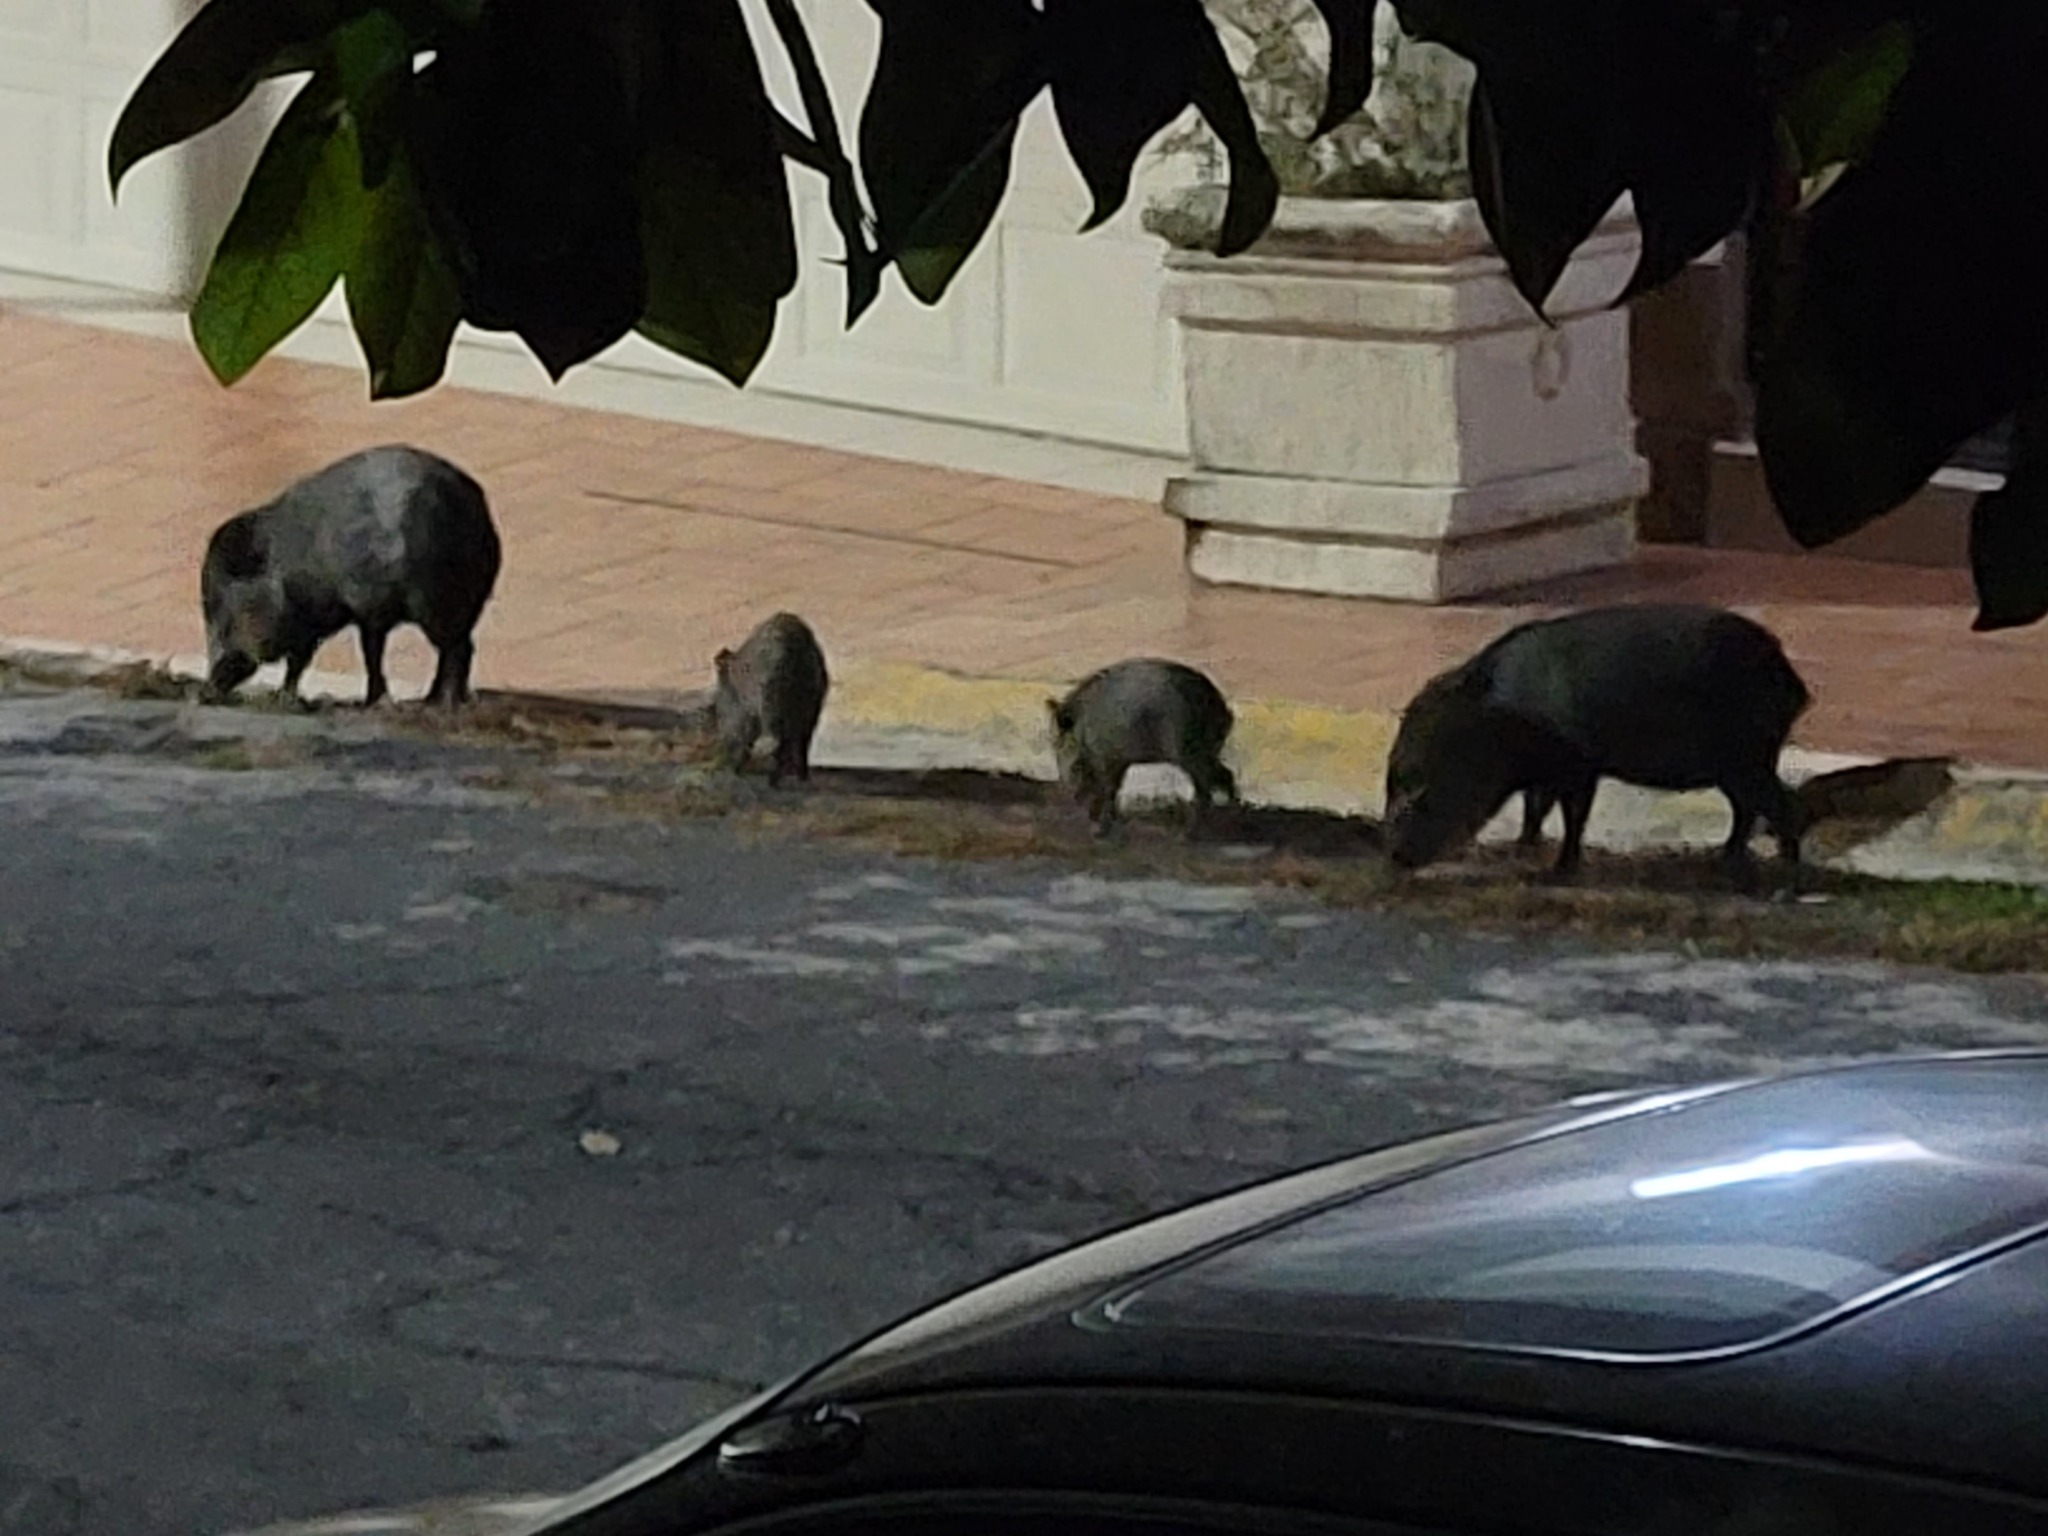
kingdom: Animalia
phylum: Chordata
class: Mammalia
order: Artiodactyla
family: Tayassuidae
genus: Pecari
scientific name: Pecari tajacu
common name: Collared peccary
